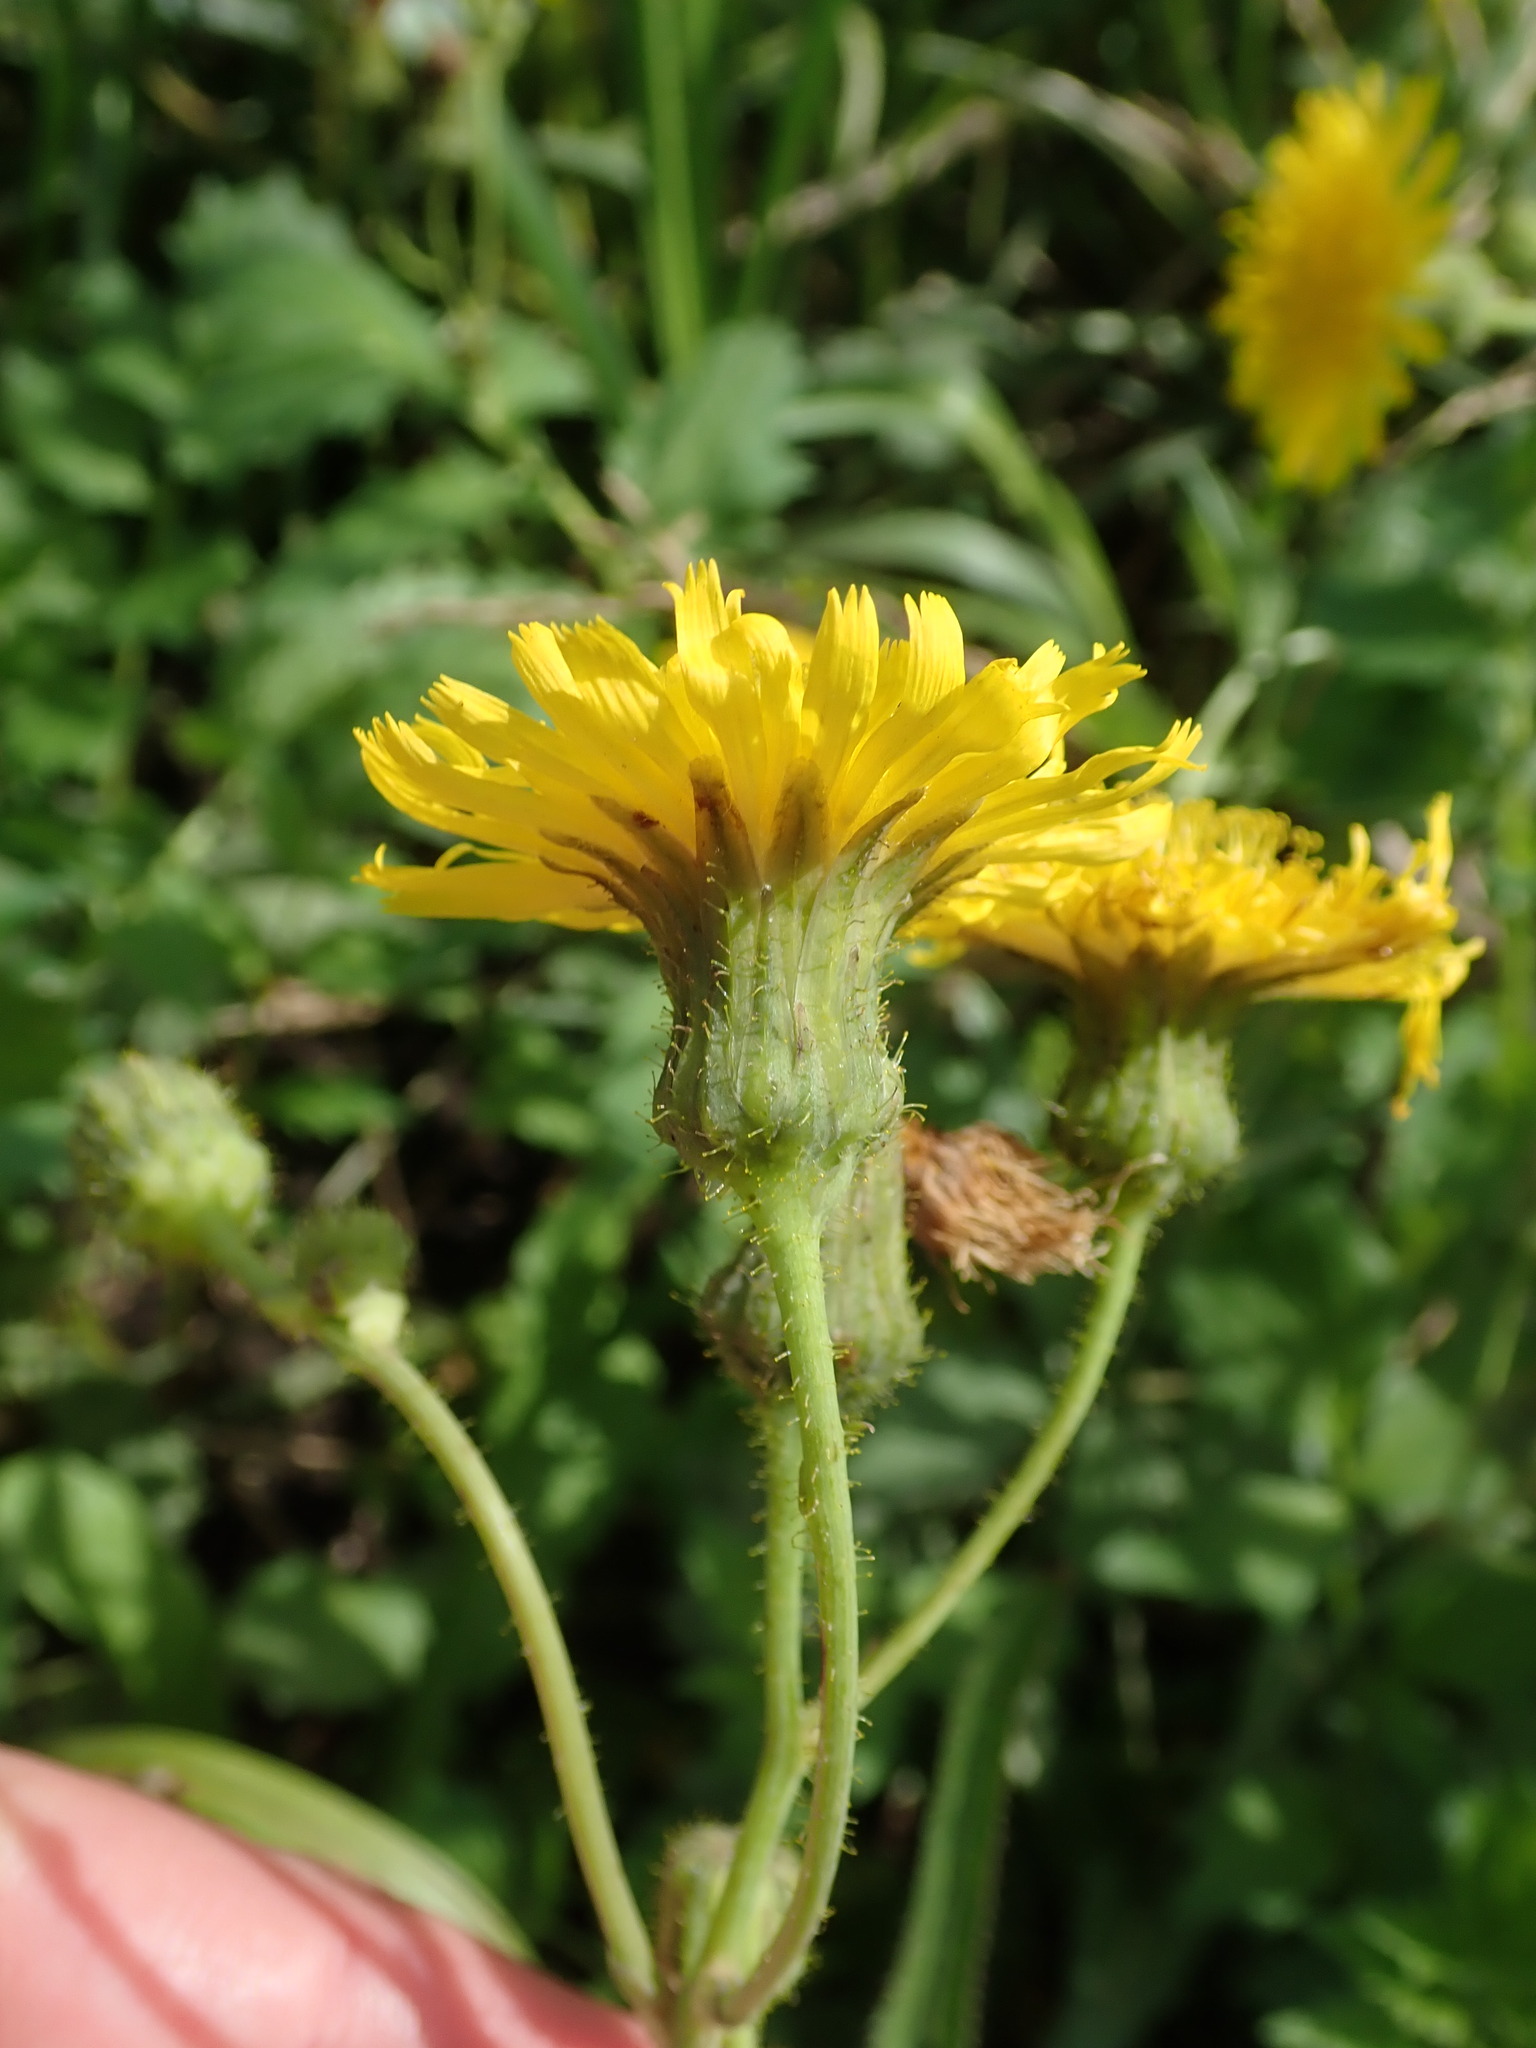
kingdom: Plantae
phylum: Tracheophyta
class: Magnoliopsida
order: Asterales
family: Asteraceae
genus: Sonchus
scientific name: Sonchus arvensis
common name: Perennial sow-thistle
